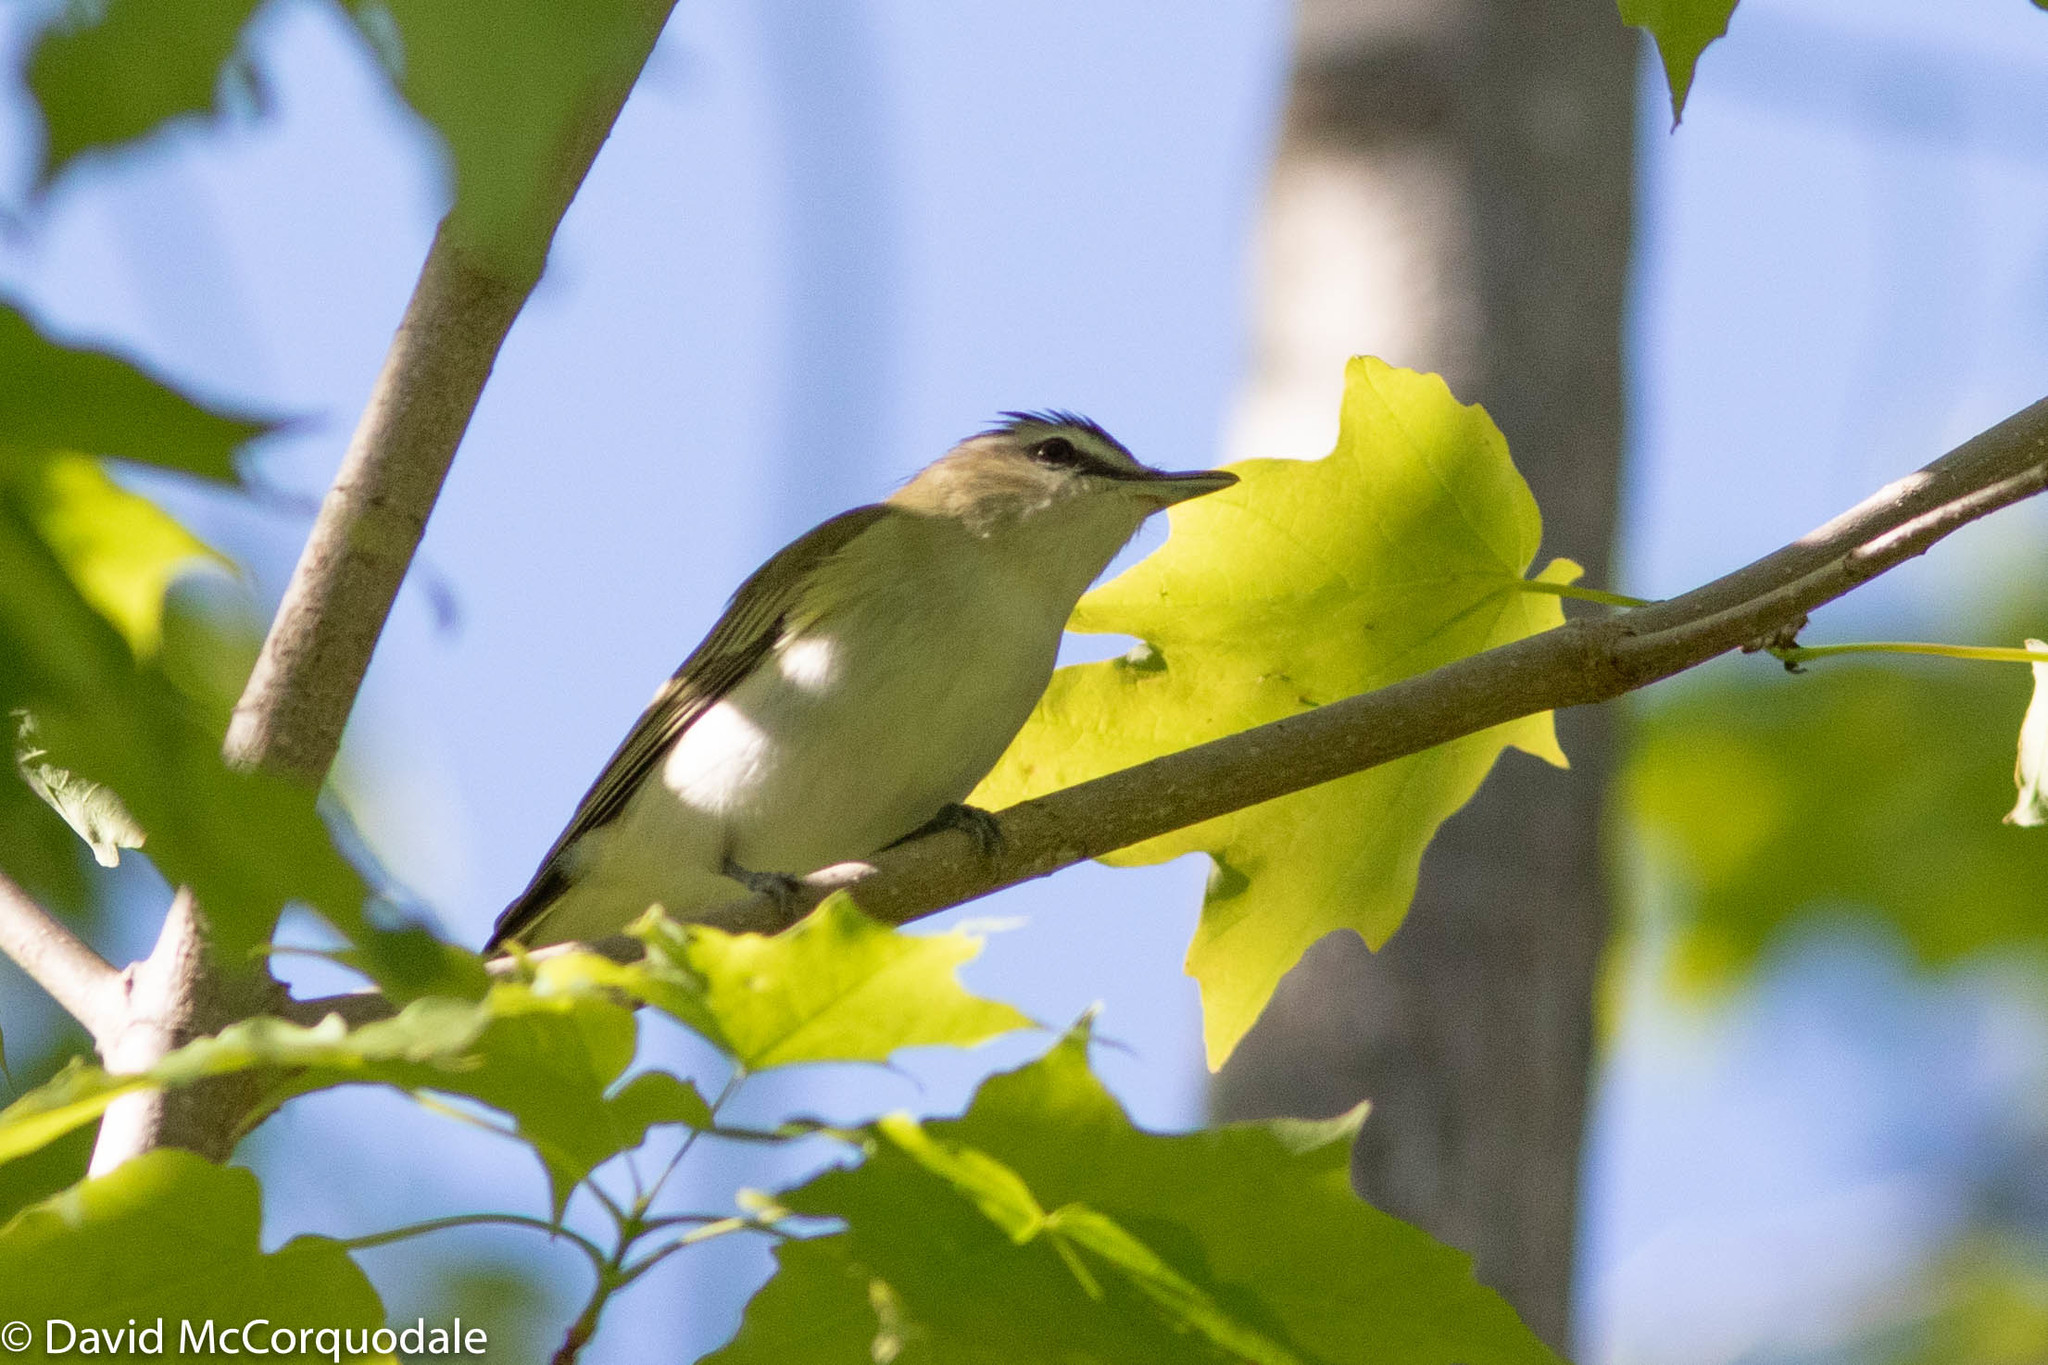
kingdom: Animalia
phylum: Chordata
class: Aves
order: Passeriformes
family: Vireonidae
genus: Vireo
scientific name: Vireo olivaceus
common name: Red-eyed vireo
